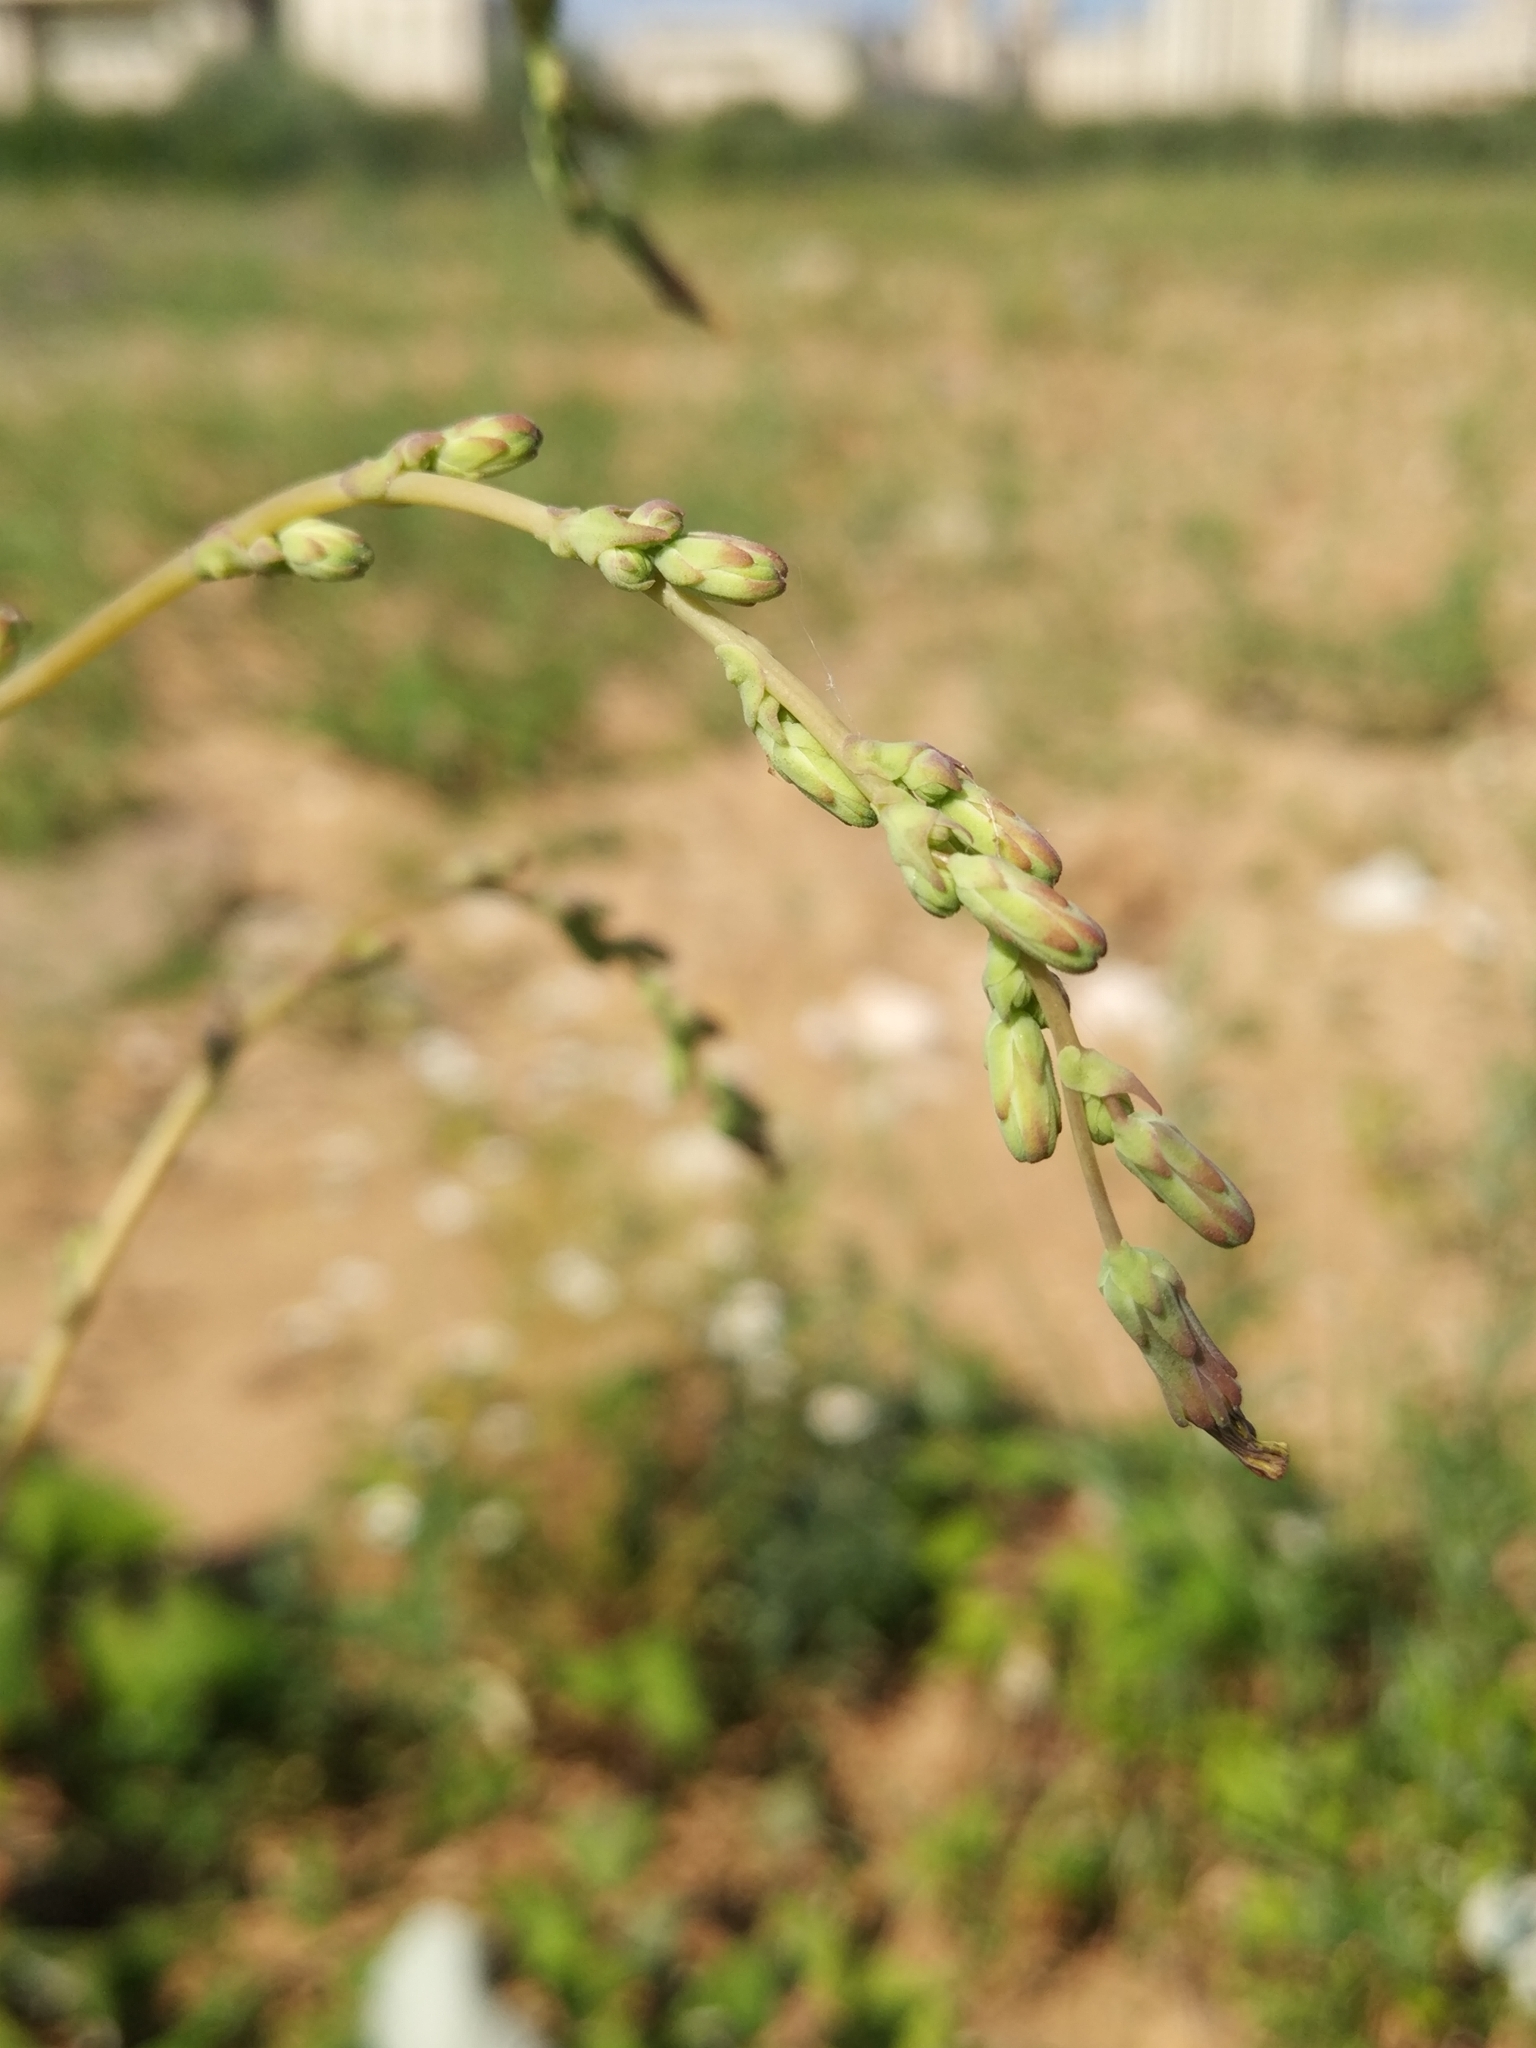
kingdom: Plantae
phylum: Tracheophyta
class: Magnoliopsida
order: Asterales
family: Asteraceae
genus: Lactuca
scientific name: Lactuca serriola
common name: Prickly lettuce
